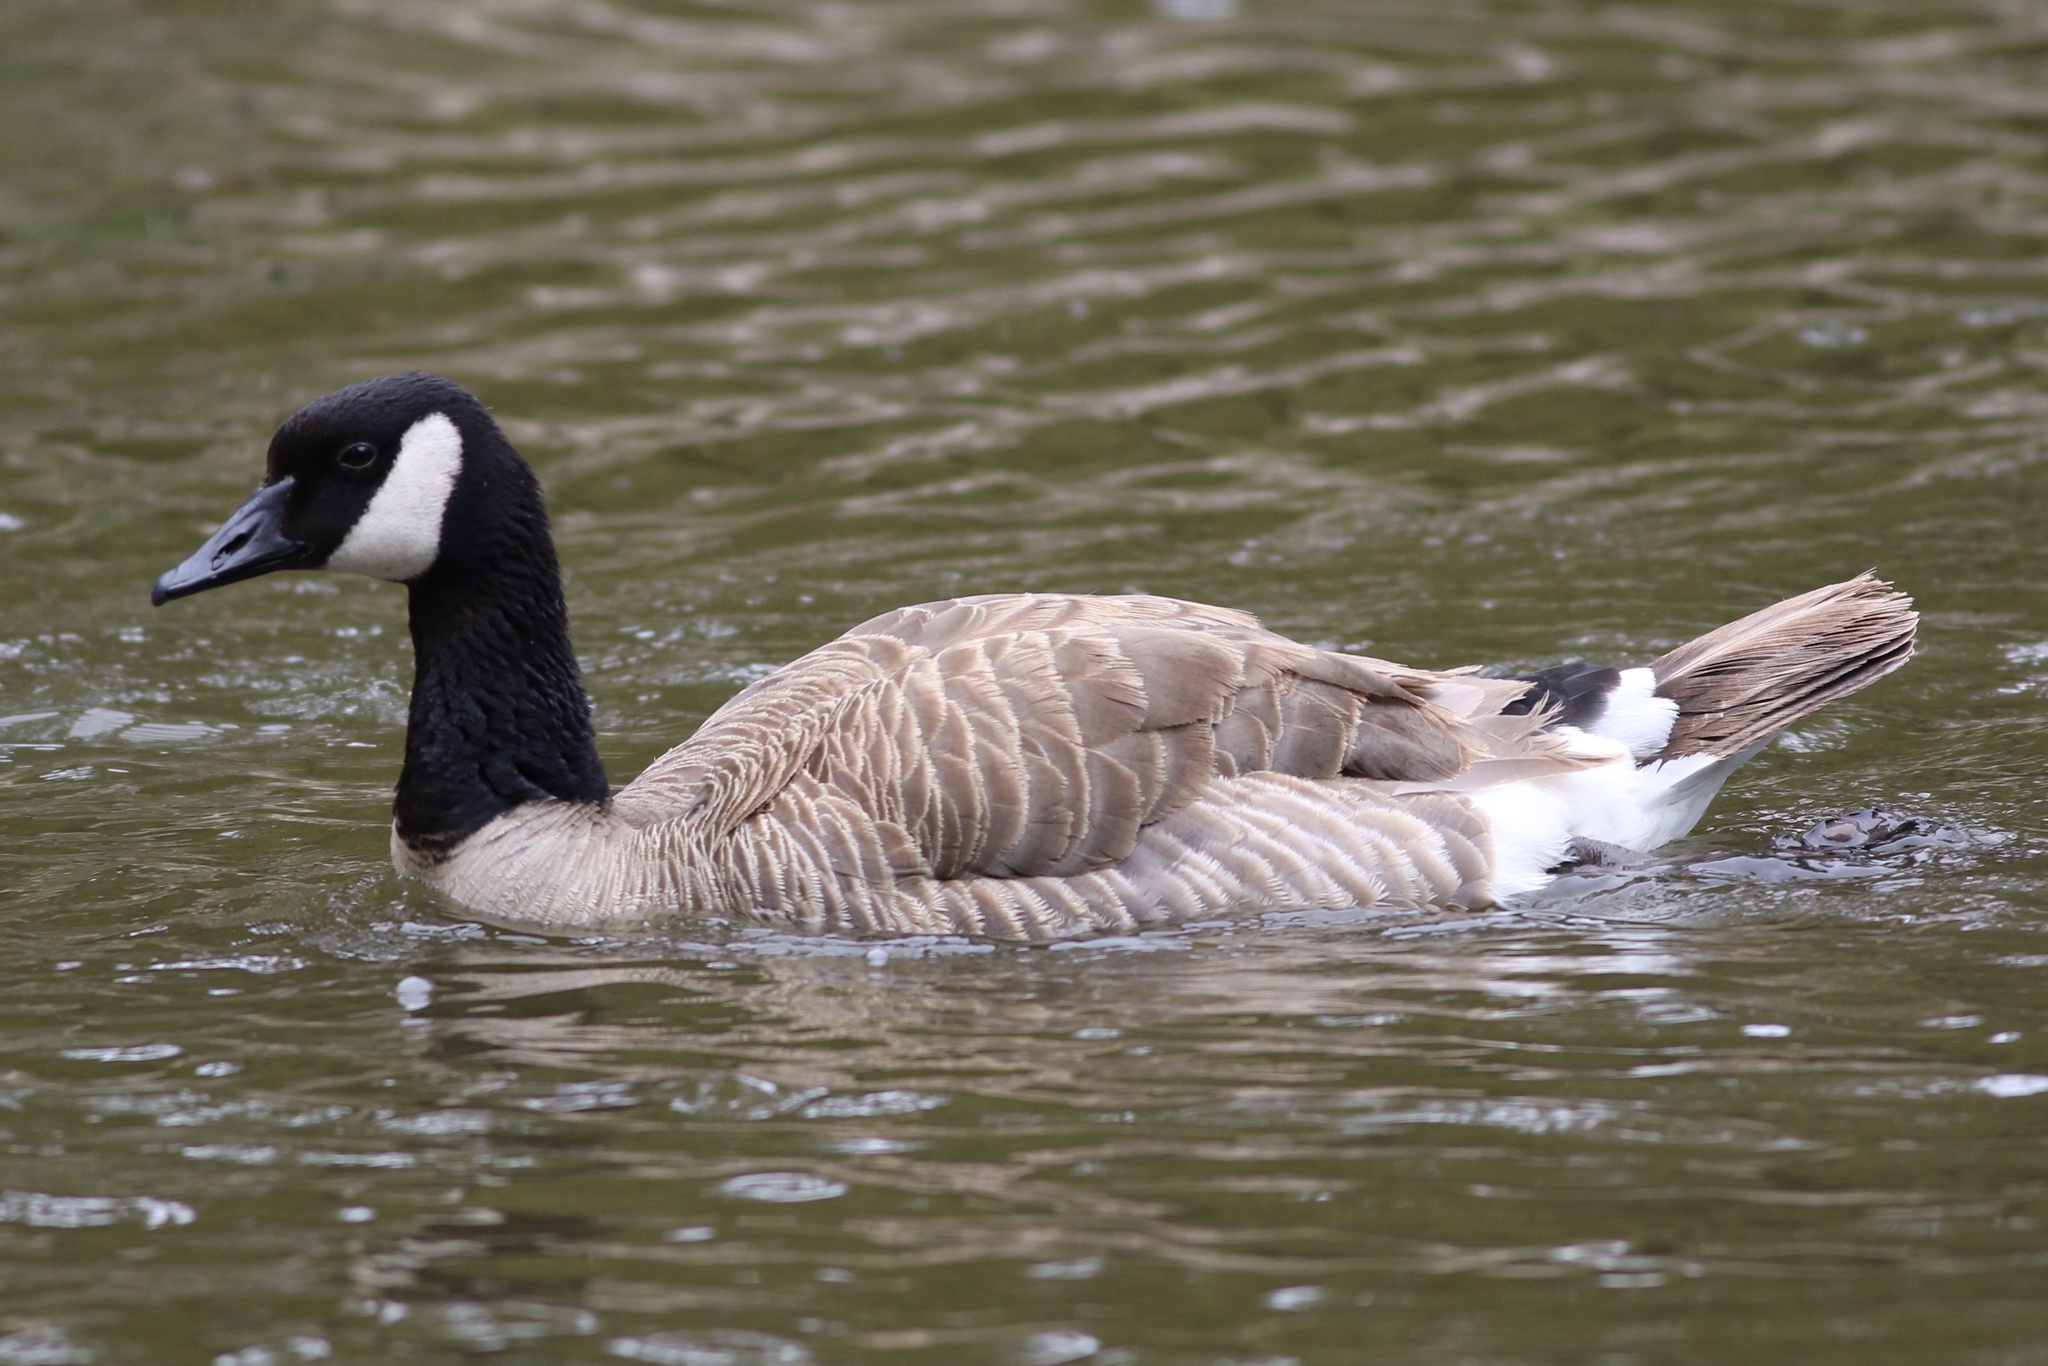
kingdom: Animalia
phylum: Chordata
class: Aves
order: Anseriformes
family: Anatidae
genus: Branta
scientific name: Branta canadensis
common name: Canada goose
